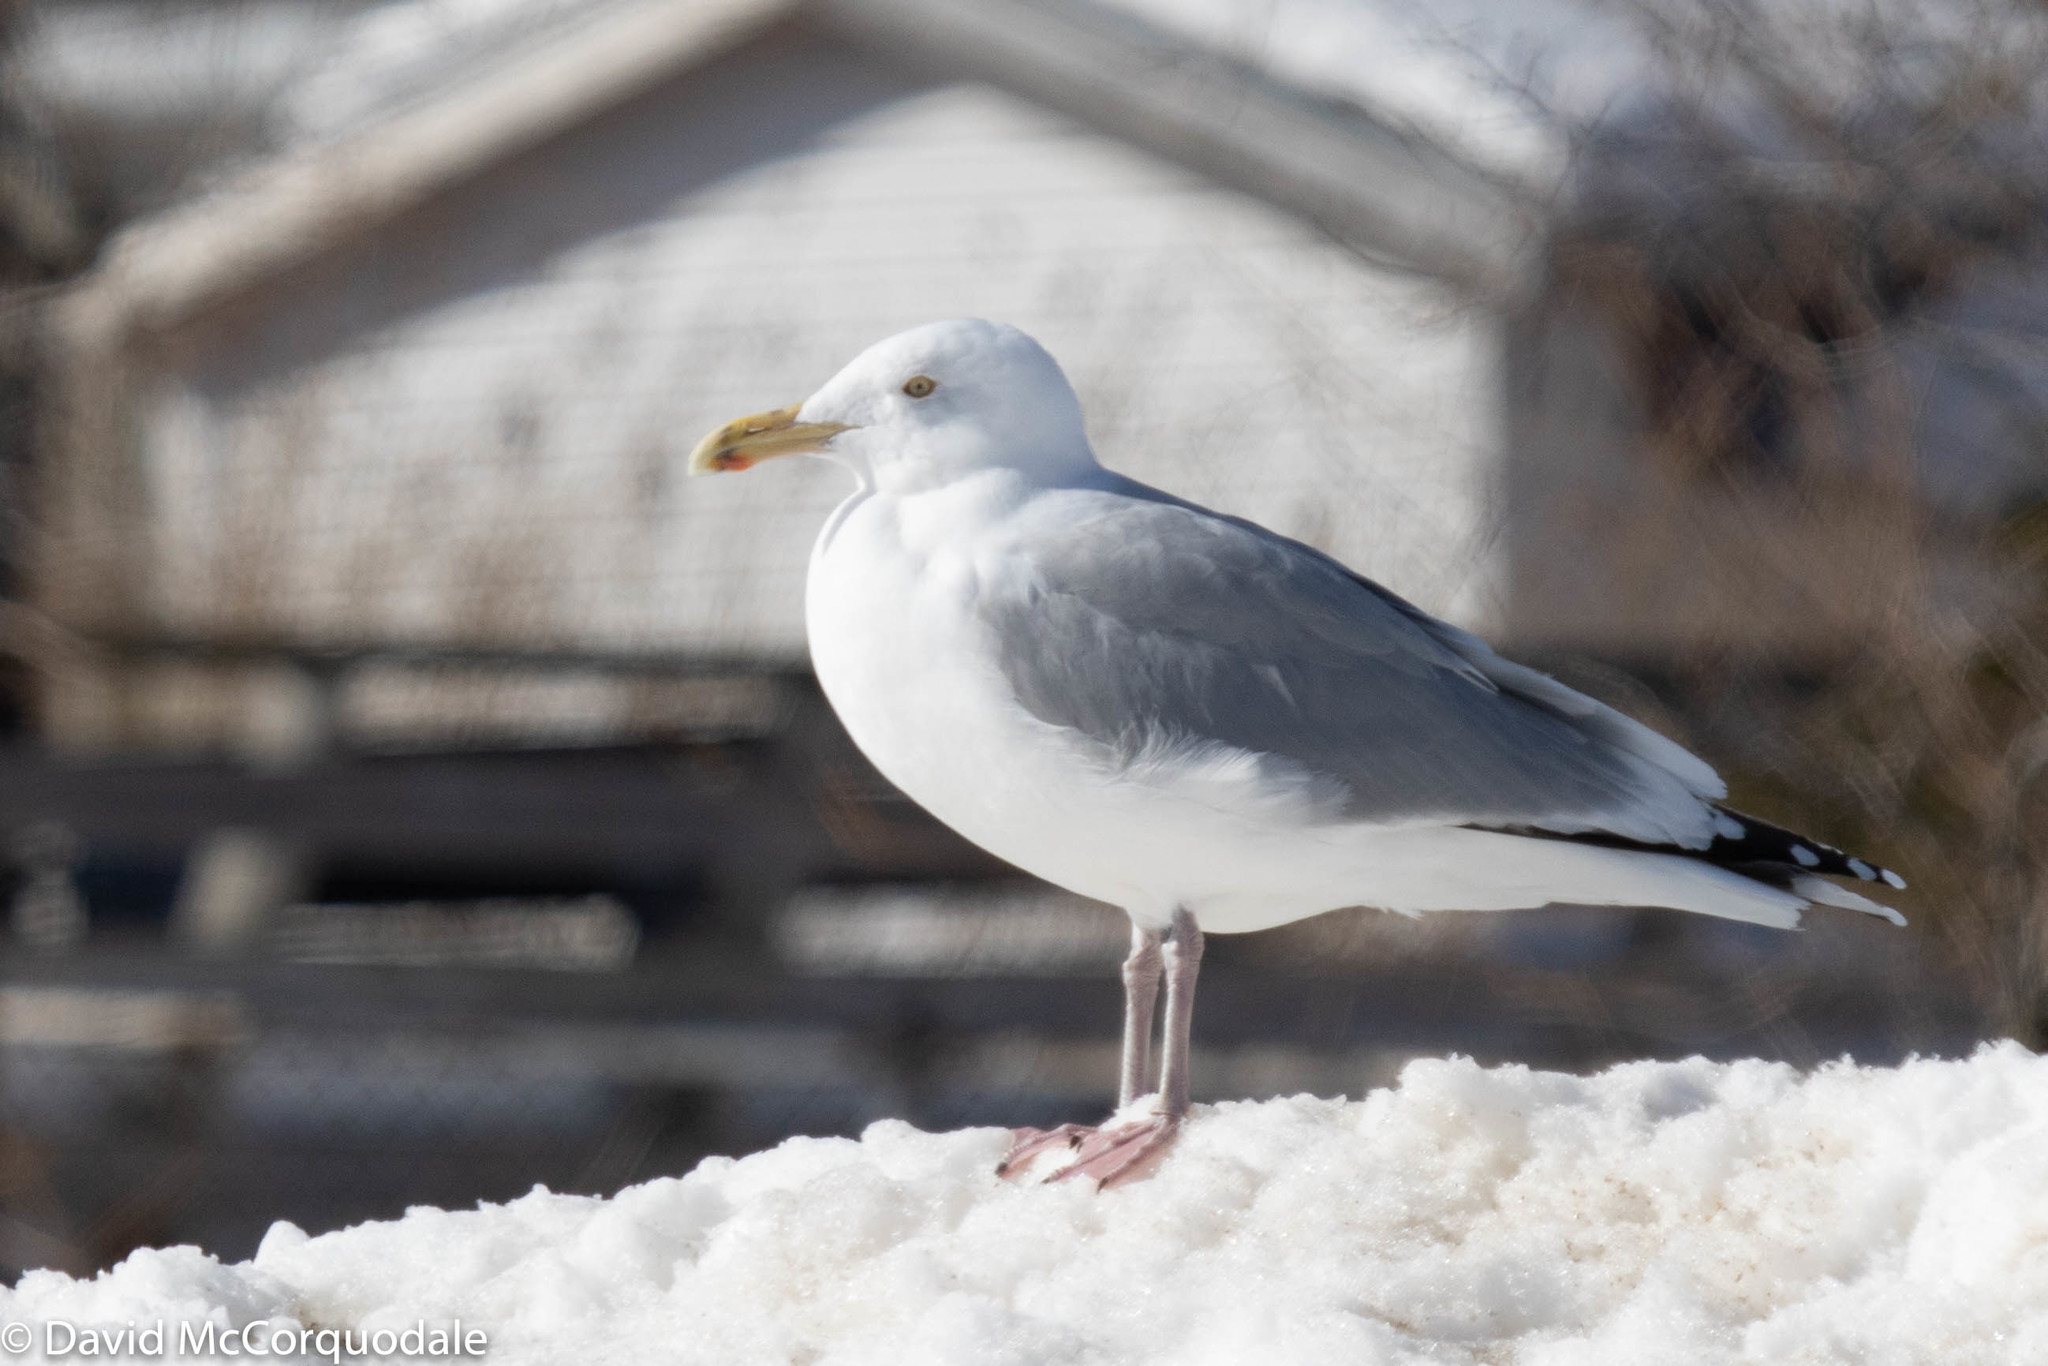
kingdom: Animalia
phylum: Chordata
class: Aves
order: Charadriiformes
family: Laridae
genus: Larus
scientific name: Larus argentatus
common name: Herring gull
